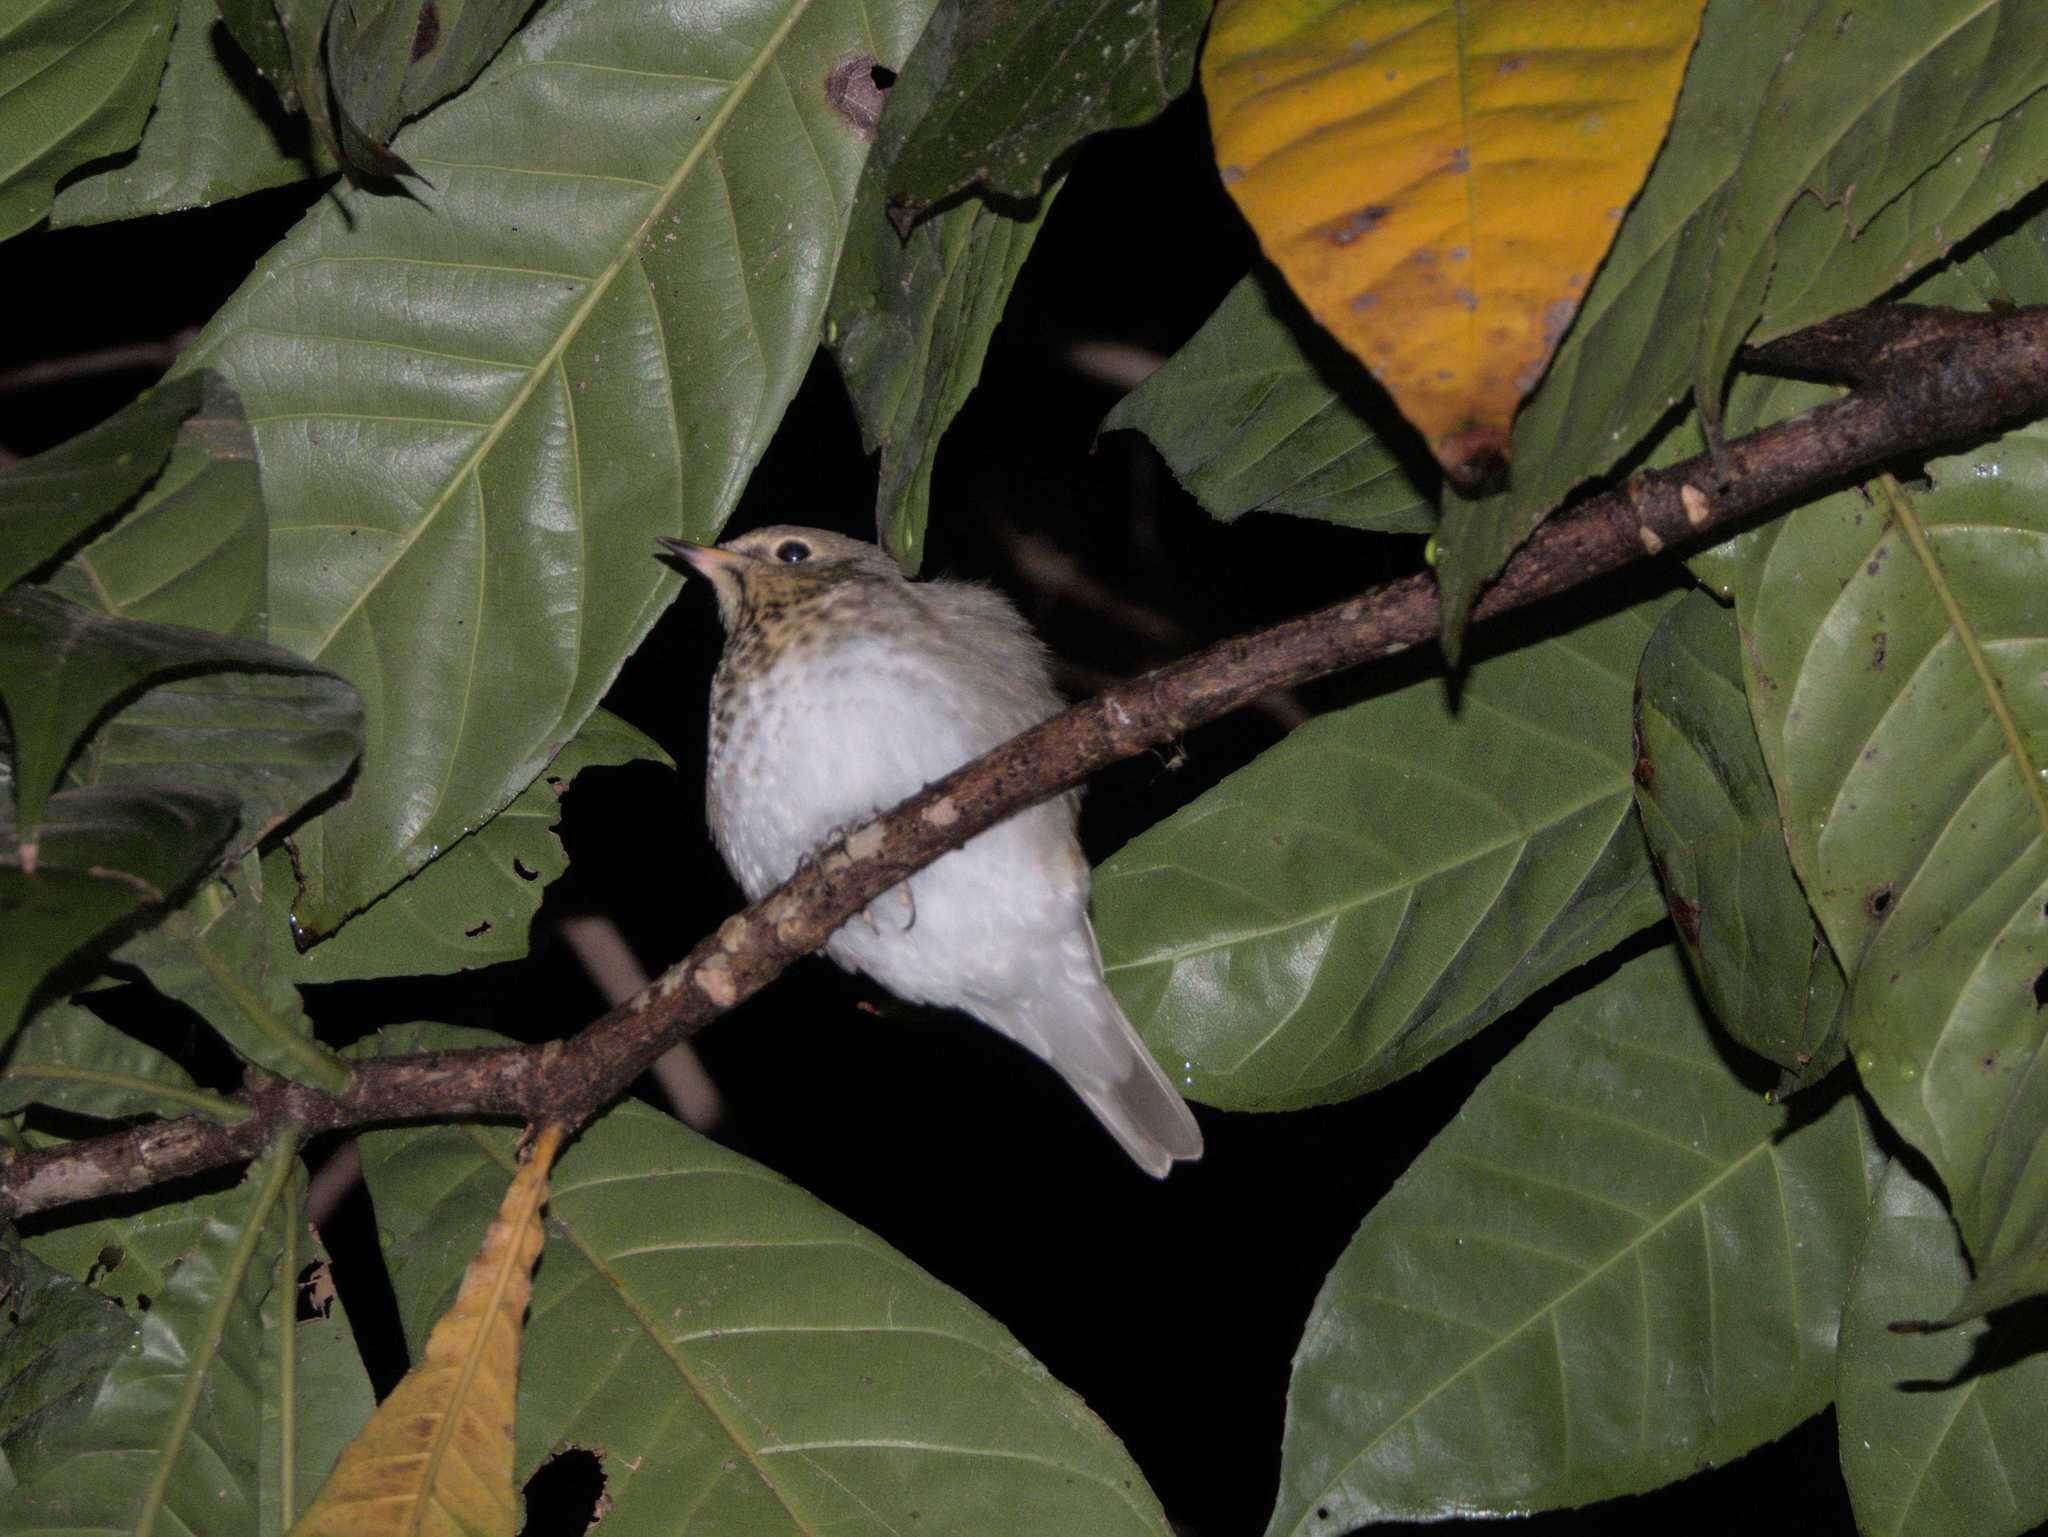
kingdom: Animalia
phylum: Chordata
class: Aves
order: Passeriformes
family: Turdidae
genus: Catharus
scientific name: Catharus ustulatus
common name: Swainson's thrush
